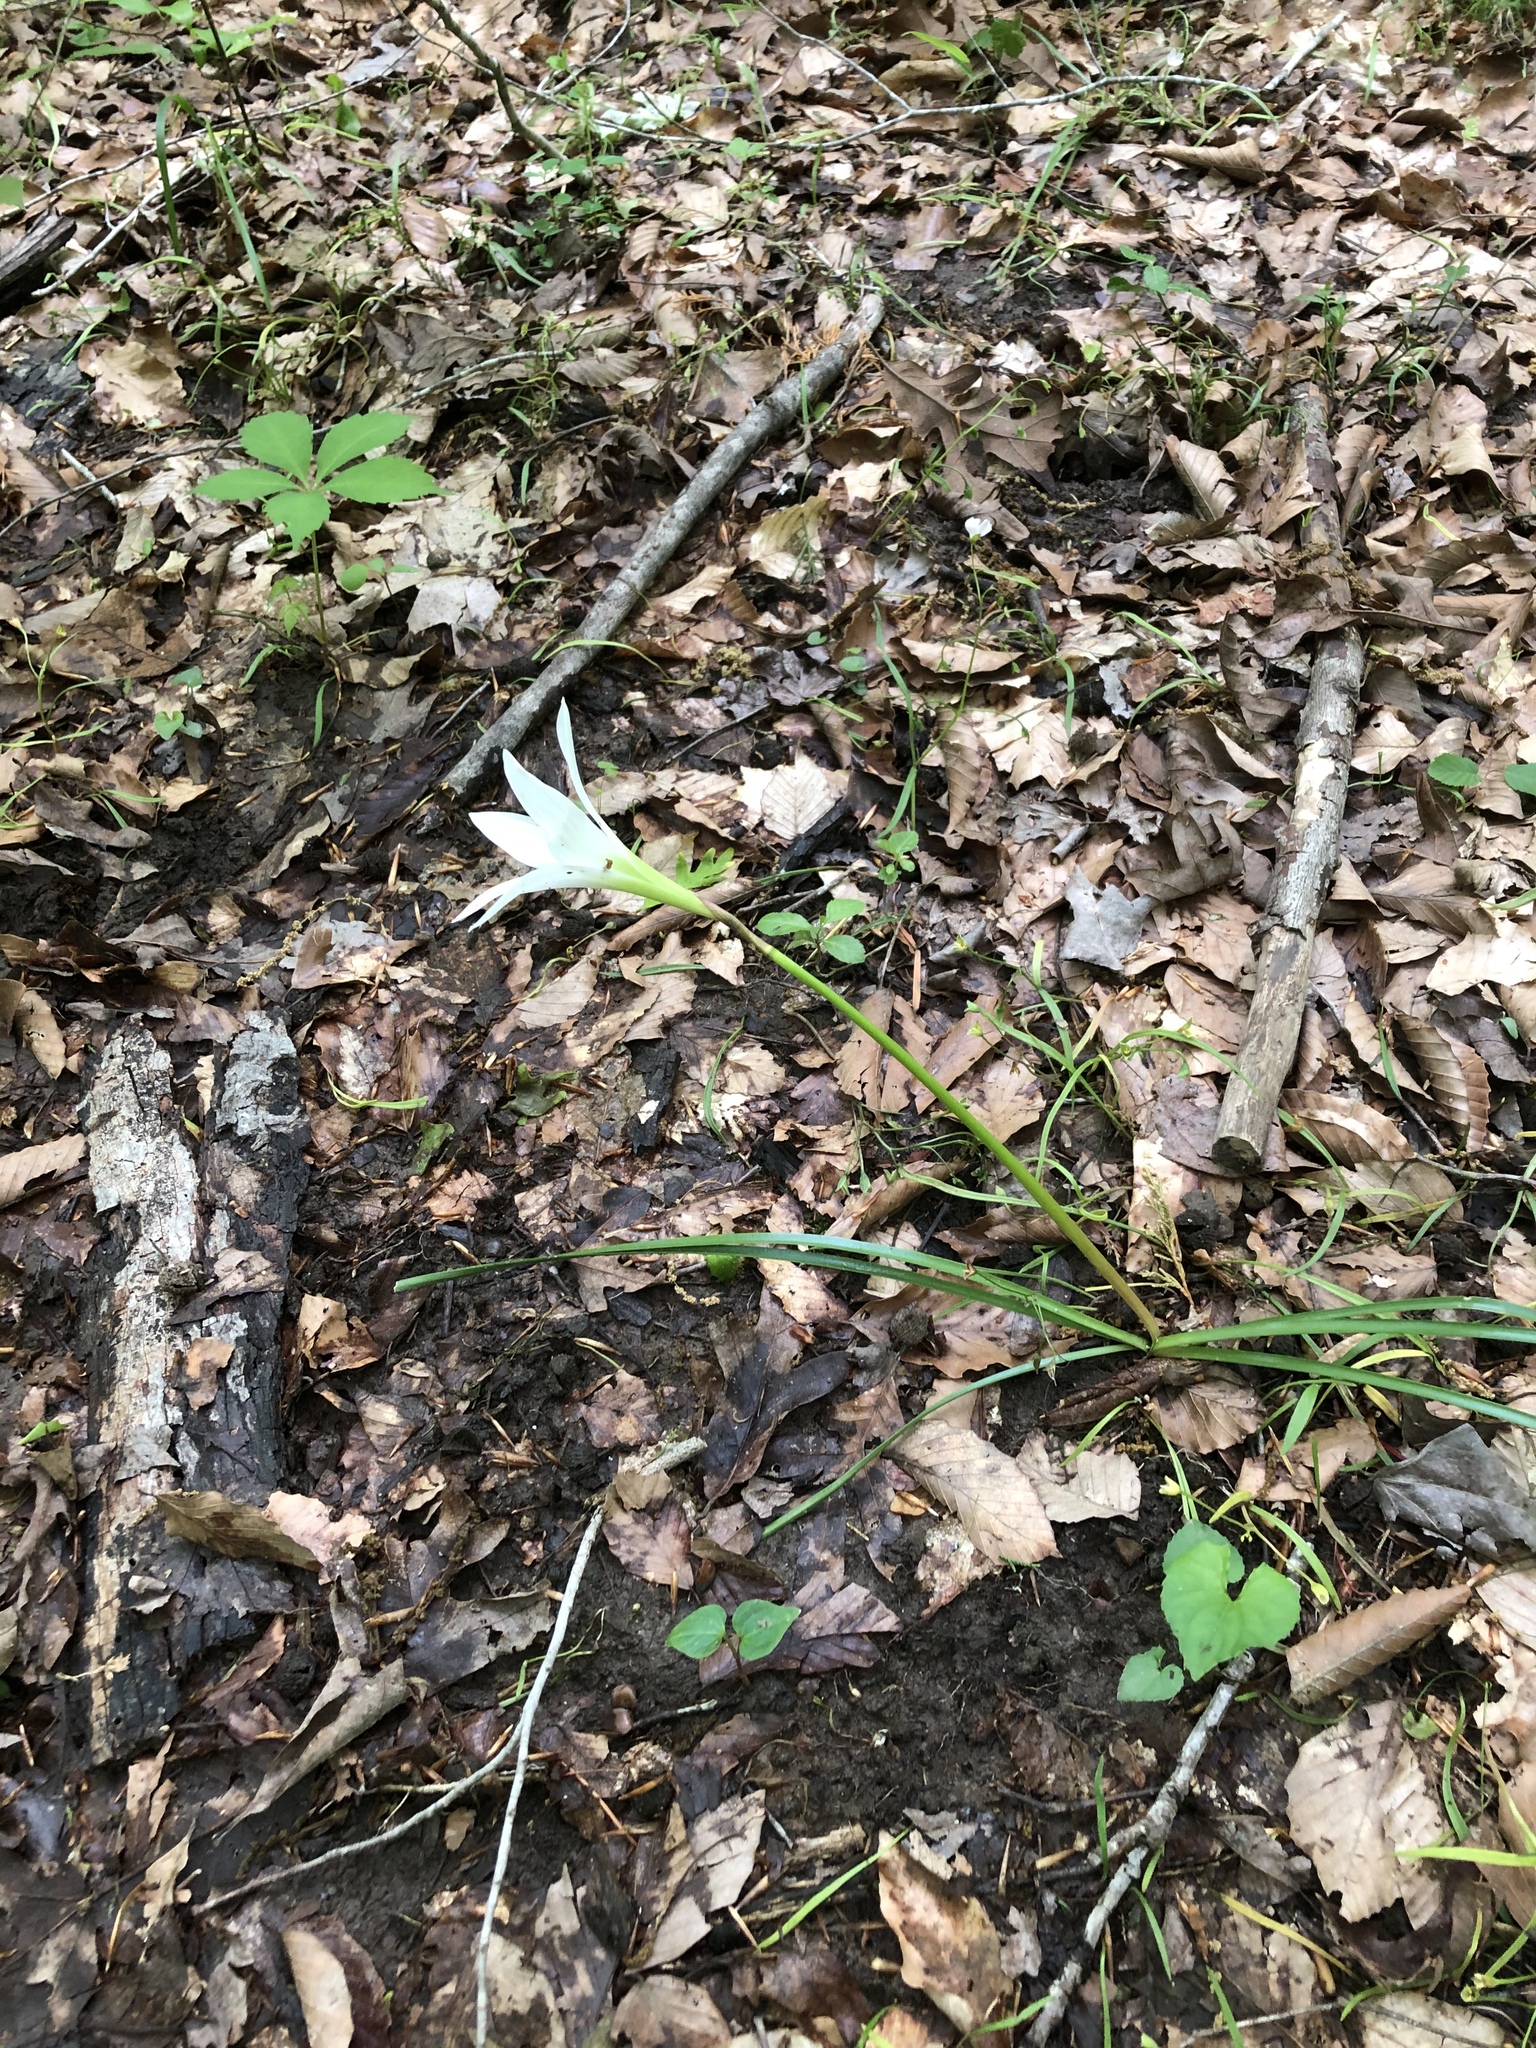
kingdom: Plantae
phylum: Tracheophyta
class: Liliopsida
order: Asparagales
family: Amaryllidaceae
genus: Zephyranthes
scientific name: Zephyranthes atamasco
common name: Atamasco lily
